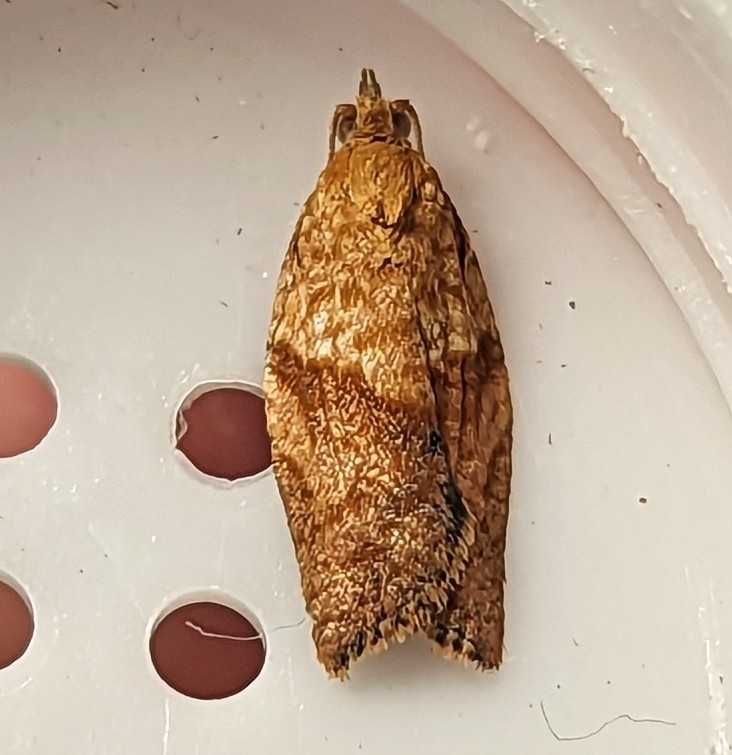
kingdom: Animalia
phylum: Arthropoda
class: Insecta
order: Lepidoptera
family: Tortricidae
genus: Epiphyas
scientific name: Epiphyas postvittana
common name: Light brown apple moth
